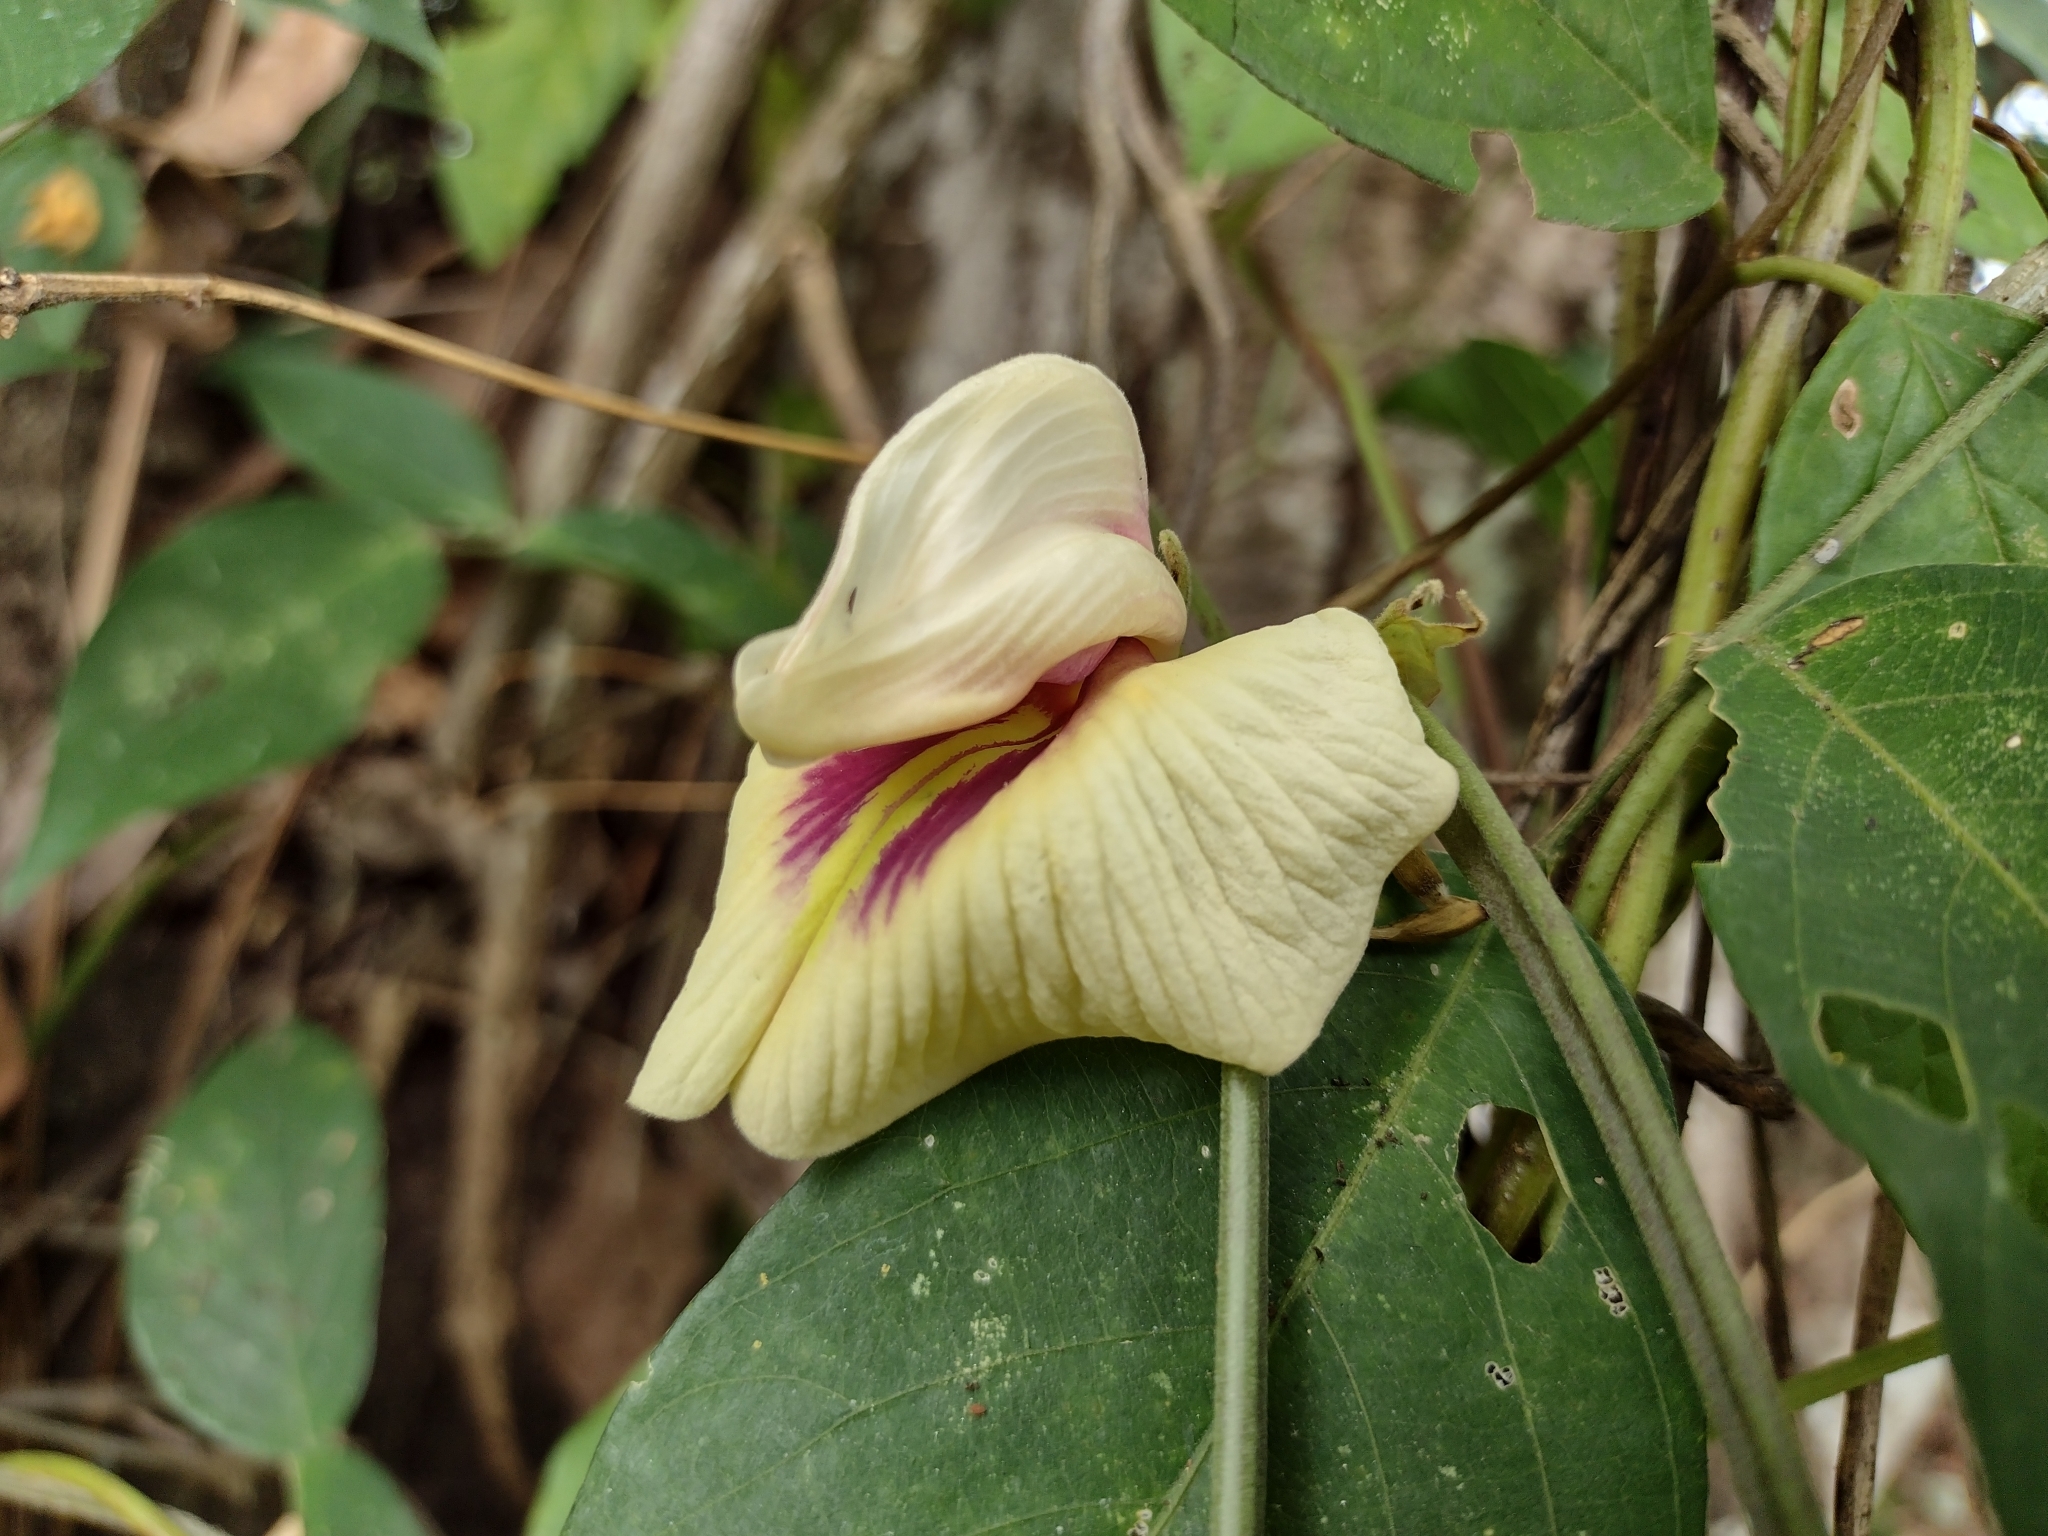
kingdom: Plantae
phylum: Tracheophyta
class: Magnoliopsida
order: Fabales
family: Fabaceae
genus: Centrosema
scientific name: Centrosema macrocarpum
